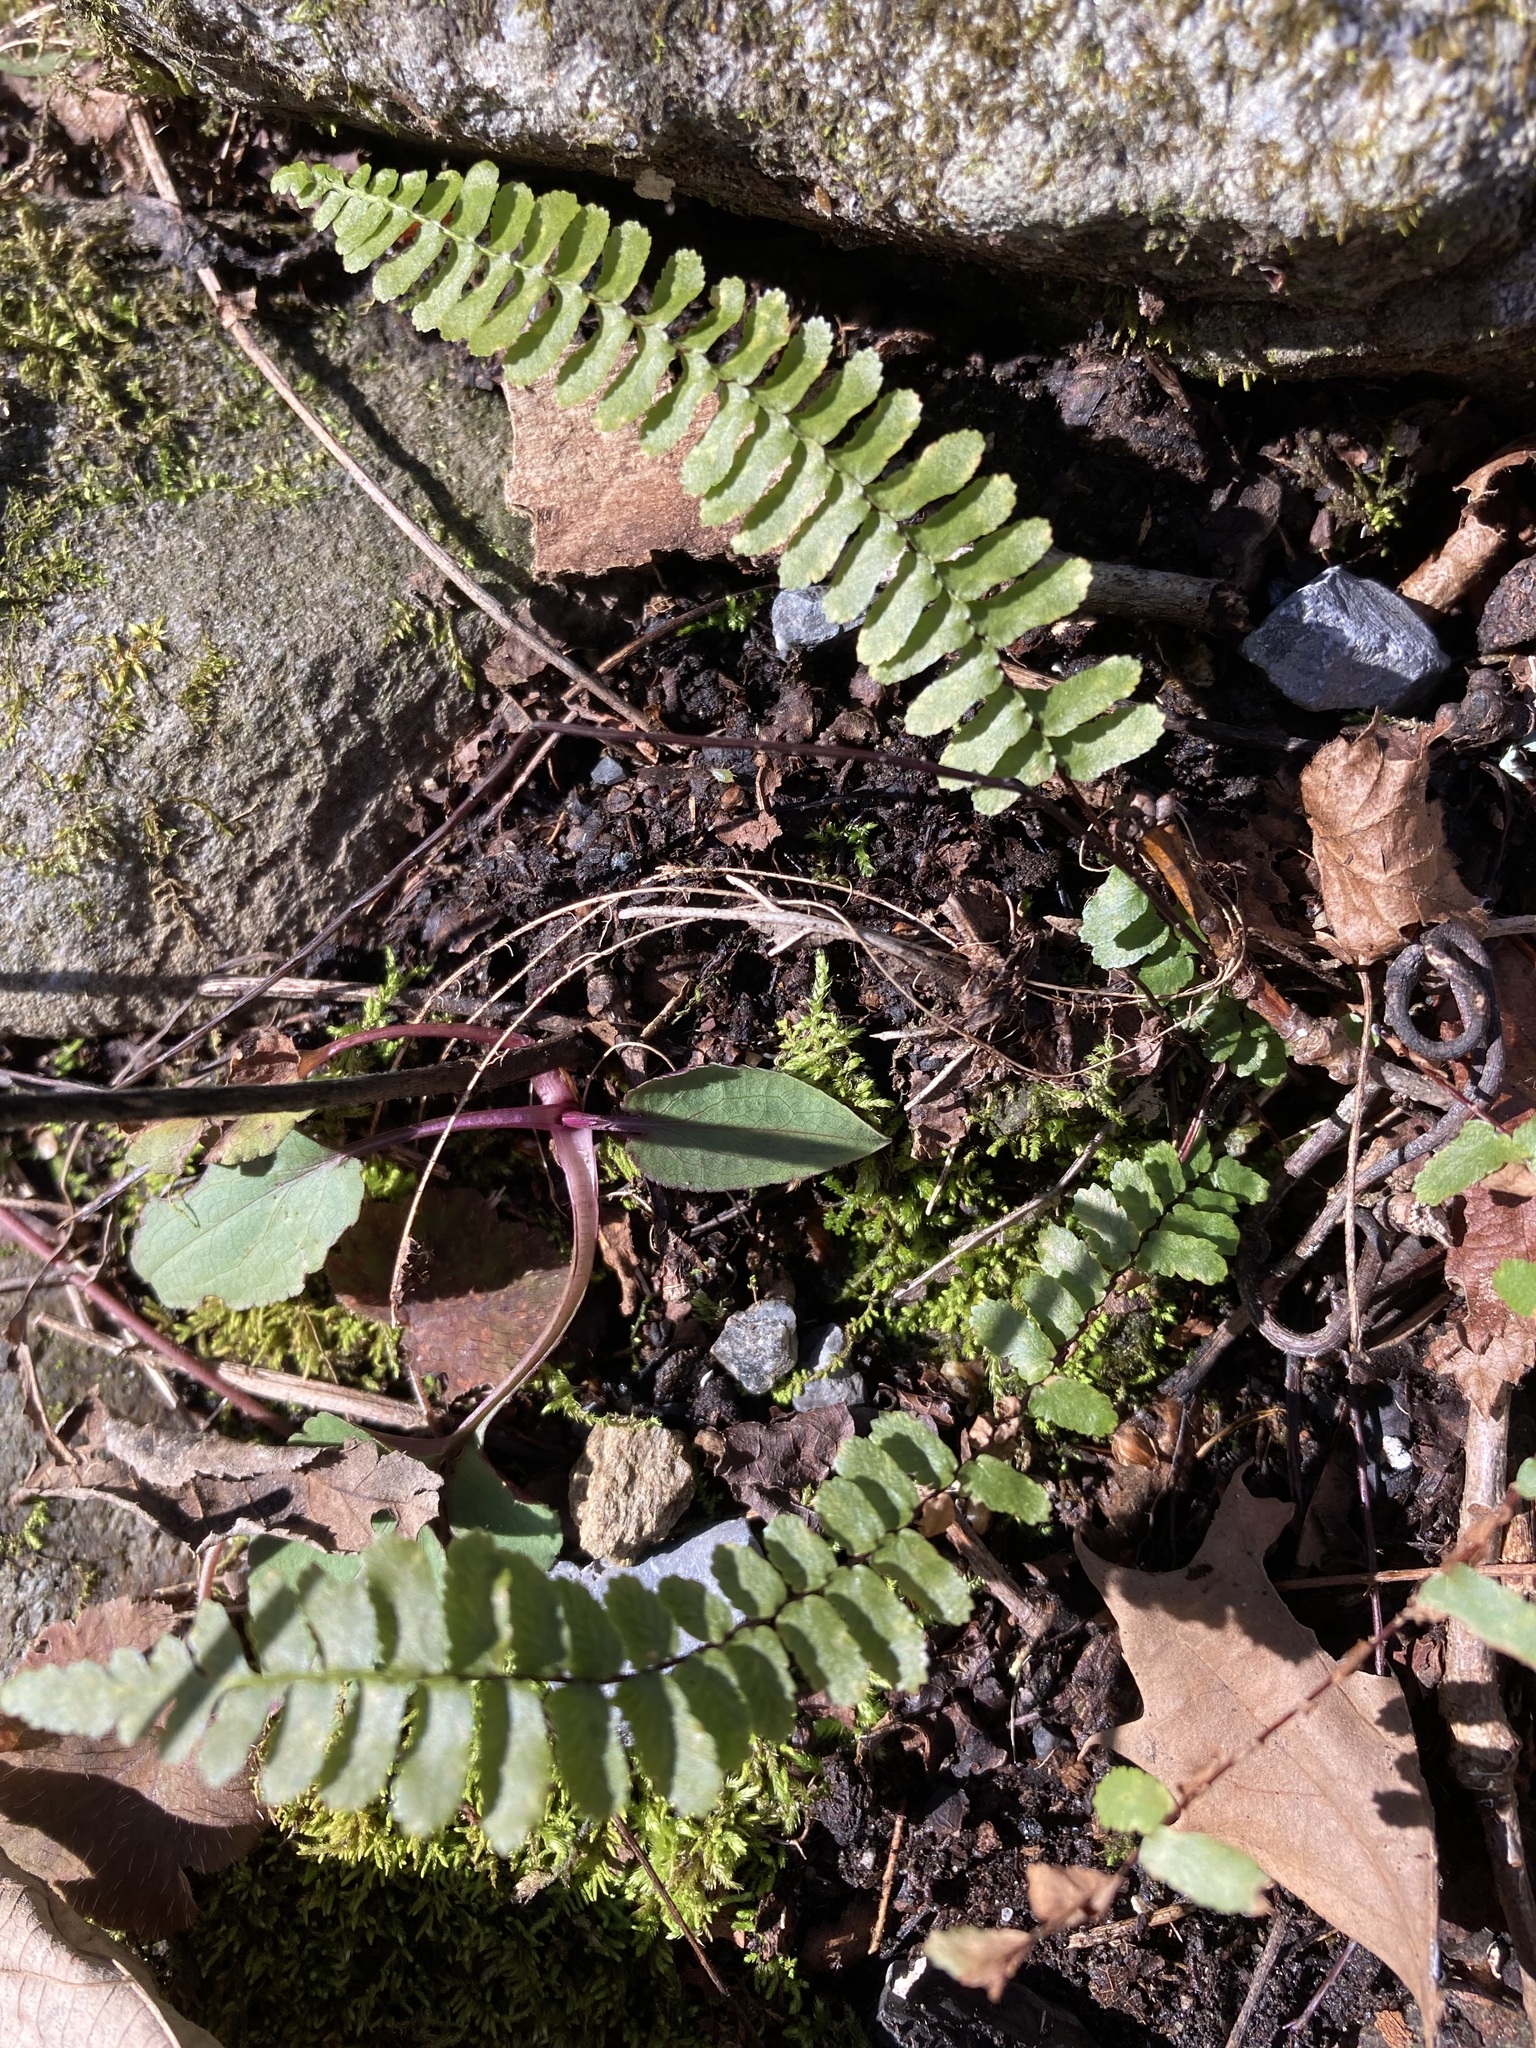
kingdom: Plantae
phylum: Tracheophyta
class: Polypodiopsida
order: Polypodiales
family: Aspleniaceae
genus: Asplenium
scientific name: Asplenium platyneuron
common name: Ebony spleenwort
